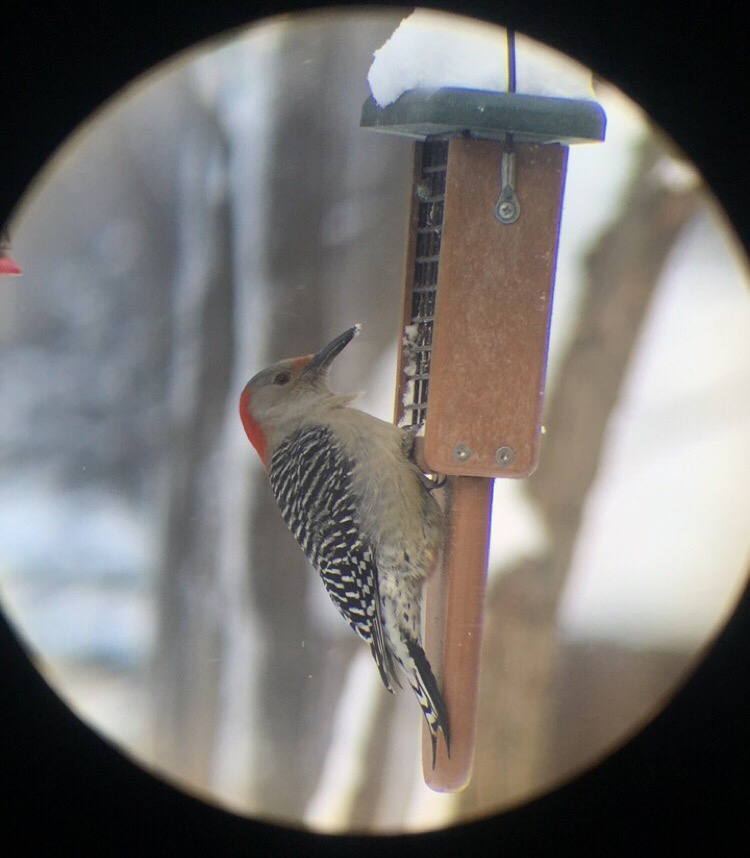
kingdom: Animalia
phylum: Chordata
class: Aves
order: Piciformes
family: Picidae
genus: Melanerpes
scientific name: Melanerpes carolinus
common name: Red-bellied woodpecker
